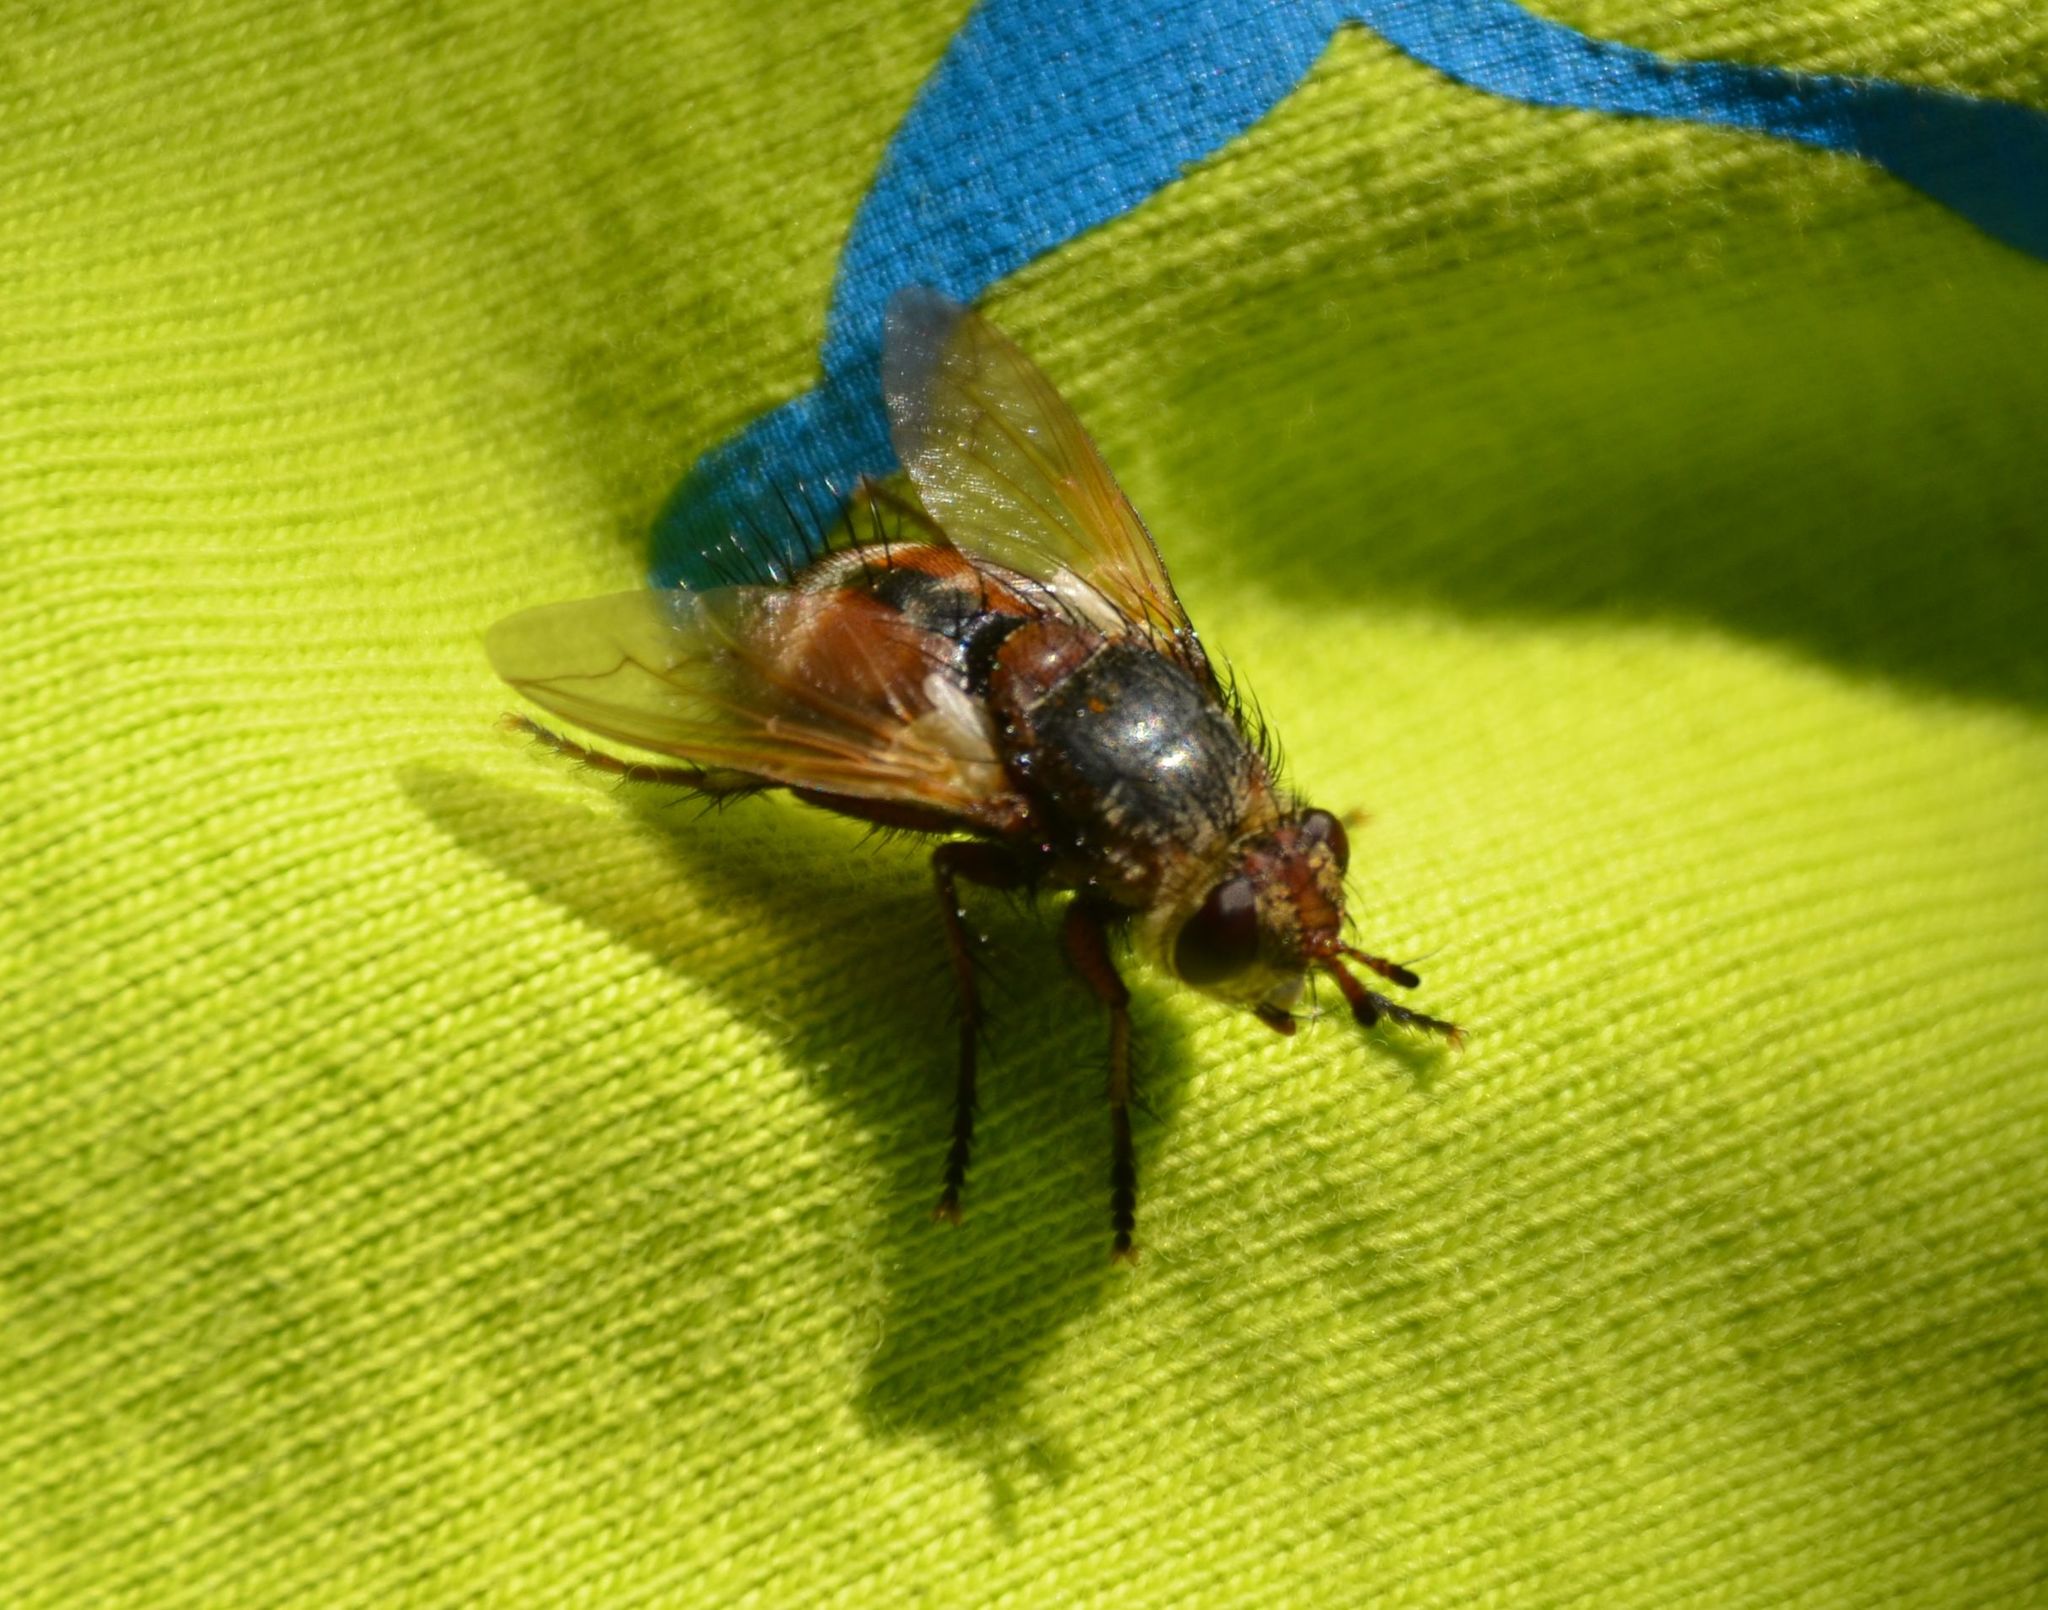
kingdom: Animalia
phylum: Arthropoda
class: Insecta
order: Diptera
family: Tachinidae
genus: Tachina
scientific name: Tachina fera
